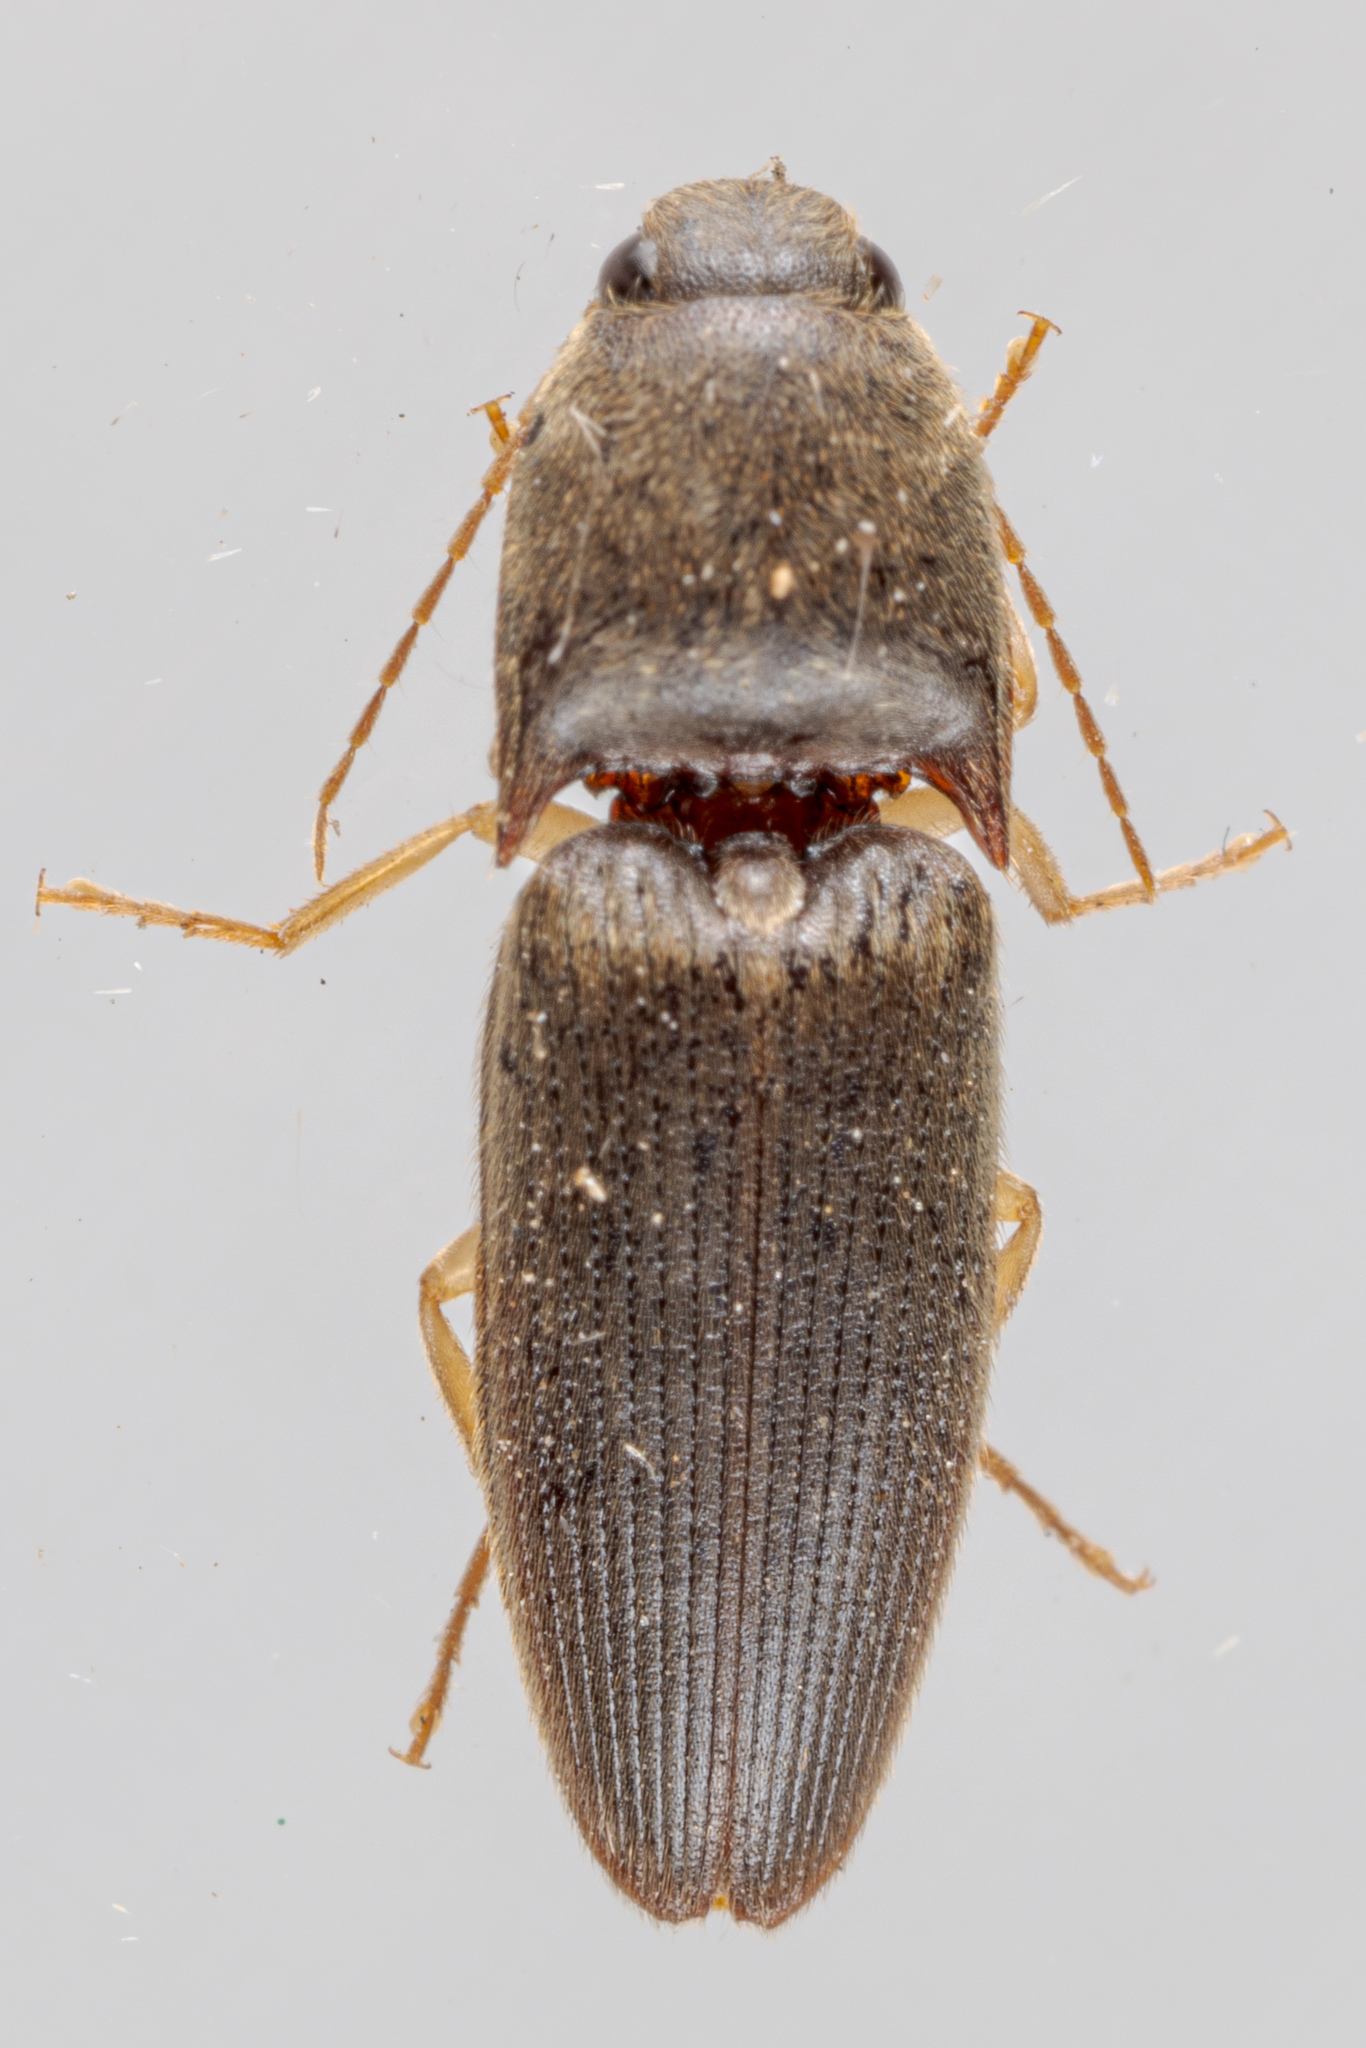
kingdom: Animalia
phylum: Arthropoda
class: Insecta
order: Coleoptera
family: Elateridae
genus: Conoderus
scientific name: Conoderus exsul
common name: Click beetle
